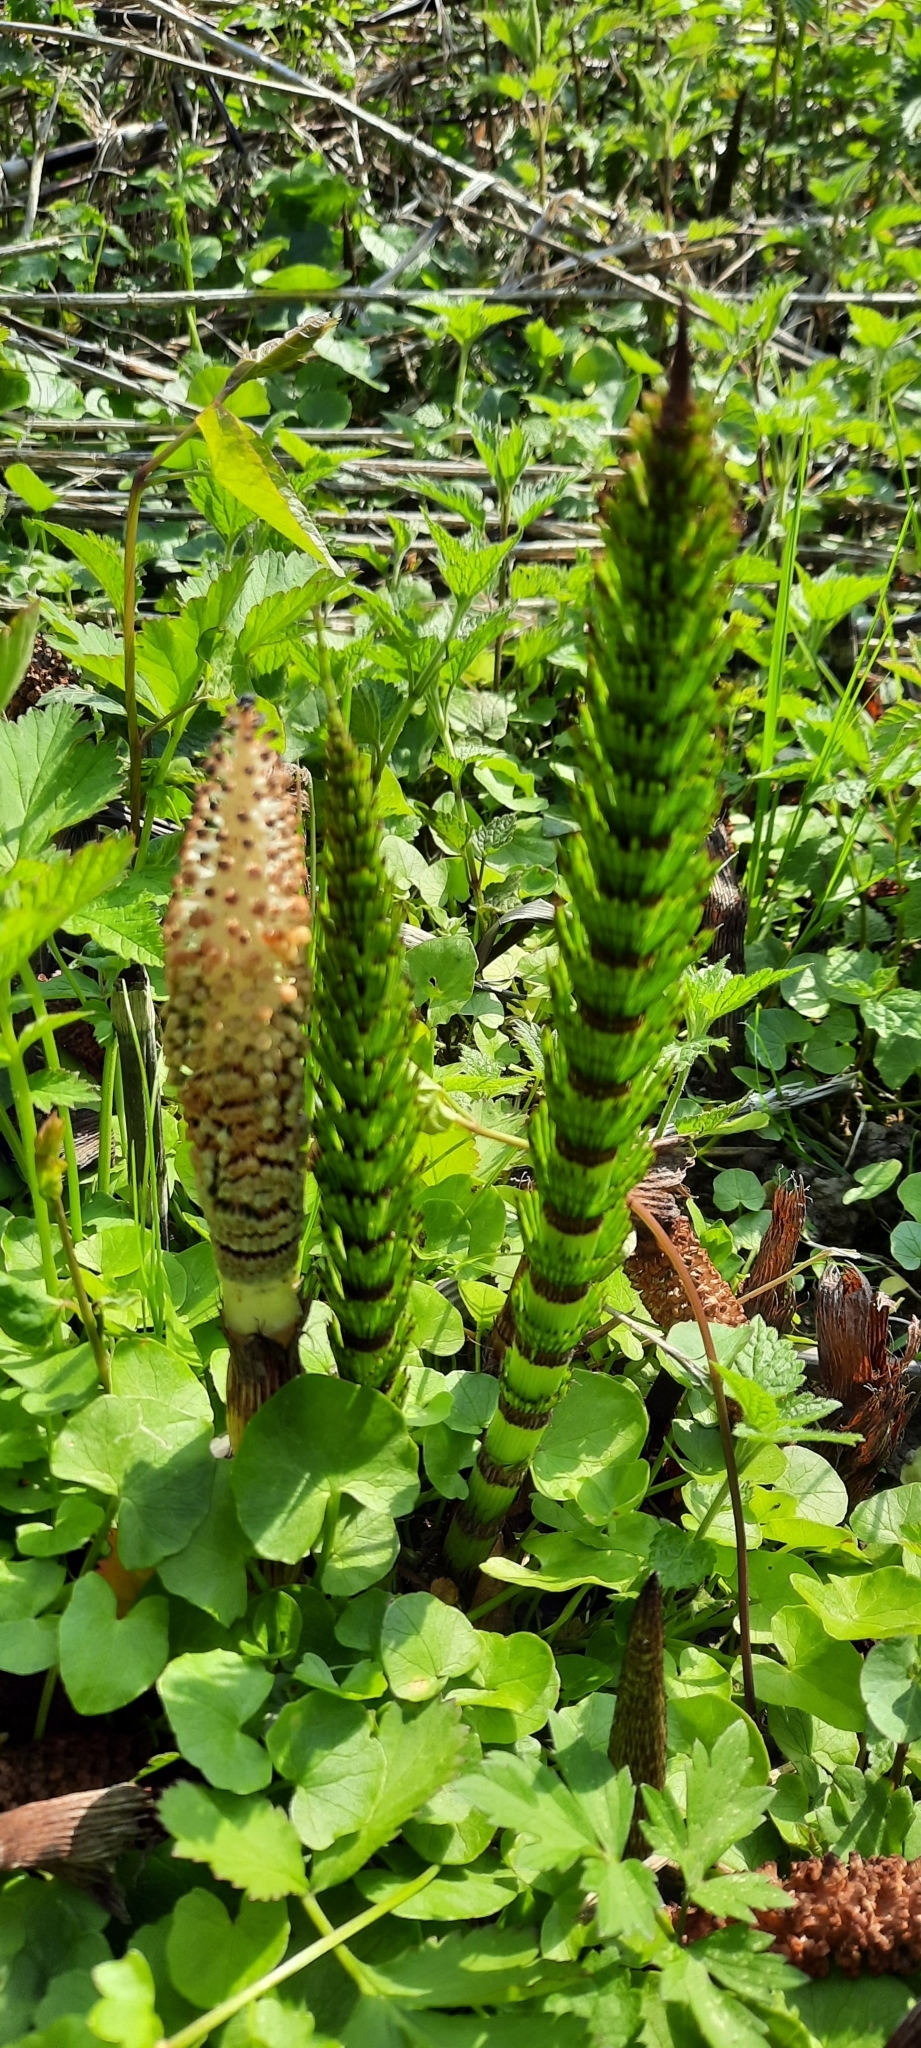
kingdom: Plantae
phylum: Tracheophyta
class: Polypodiopsida
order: Equisetales
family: Equisetaceae
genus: Equisetum
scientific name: Equisetum telmateia
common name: Great horsetail
